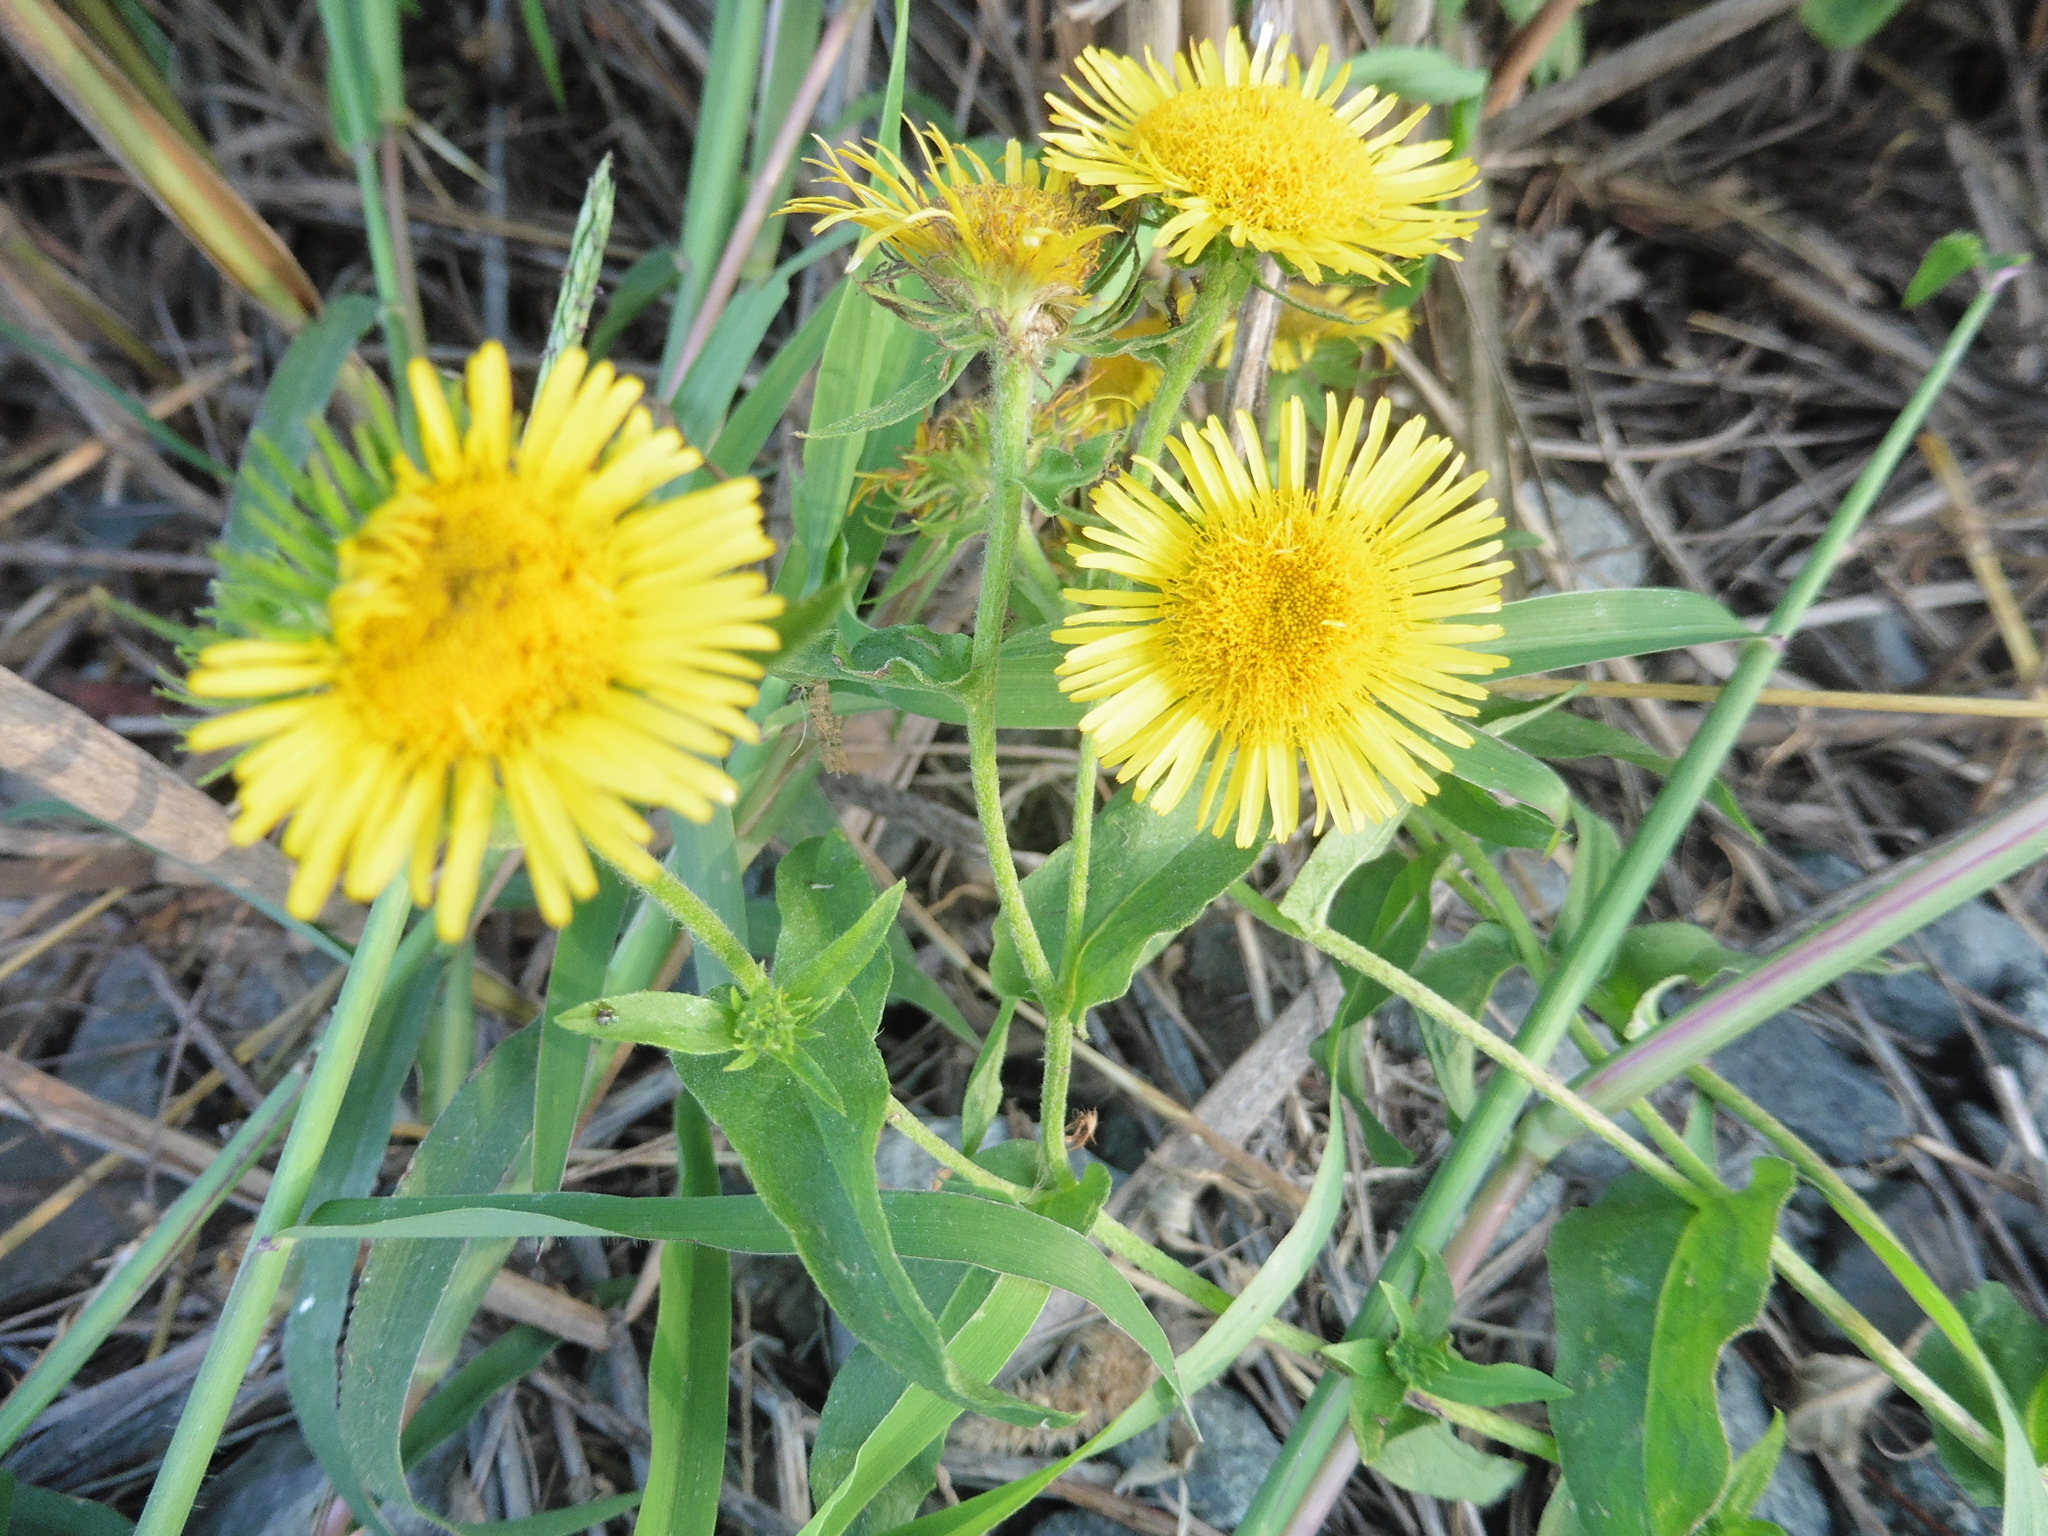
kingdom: Plantae
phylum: Tracheophyta
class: Magnoliopsida
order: Asterales
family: Asteraceae
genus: Pentanema
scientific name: Pentanema britannicum
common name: British elecampane
